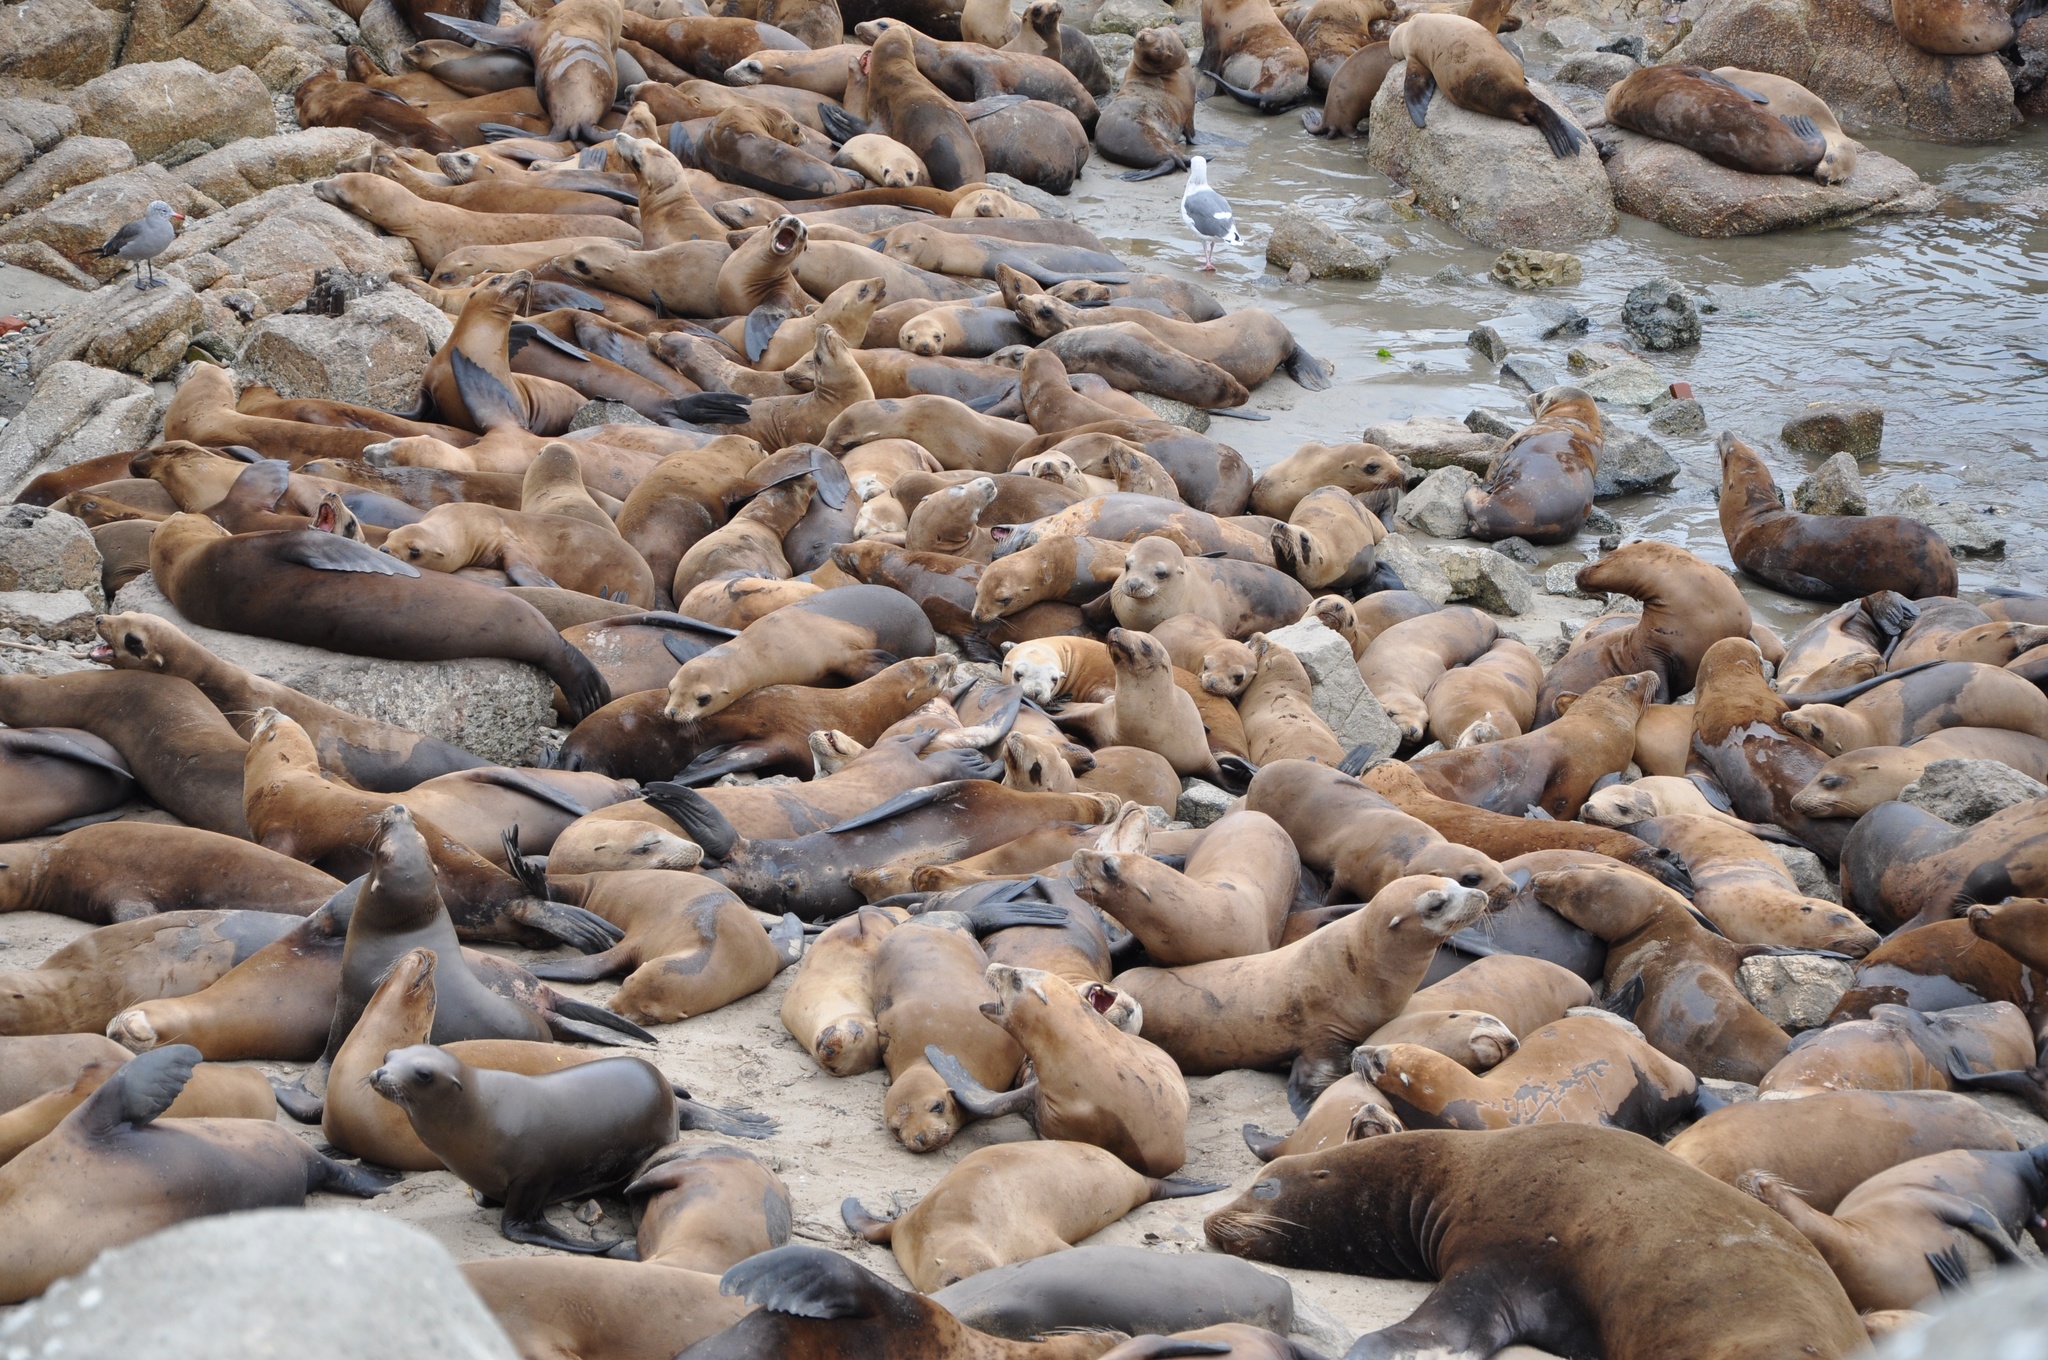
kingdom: Animalia
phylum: Chordata
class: Mammalia
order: Carnivora
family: Otariidae
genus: Zalophus
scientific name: Zalophus californianus
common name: California sea lion
